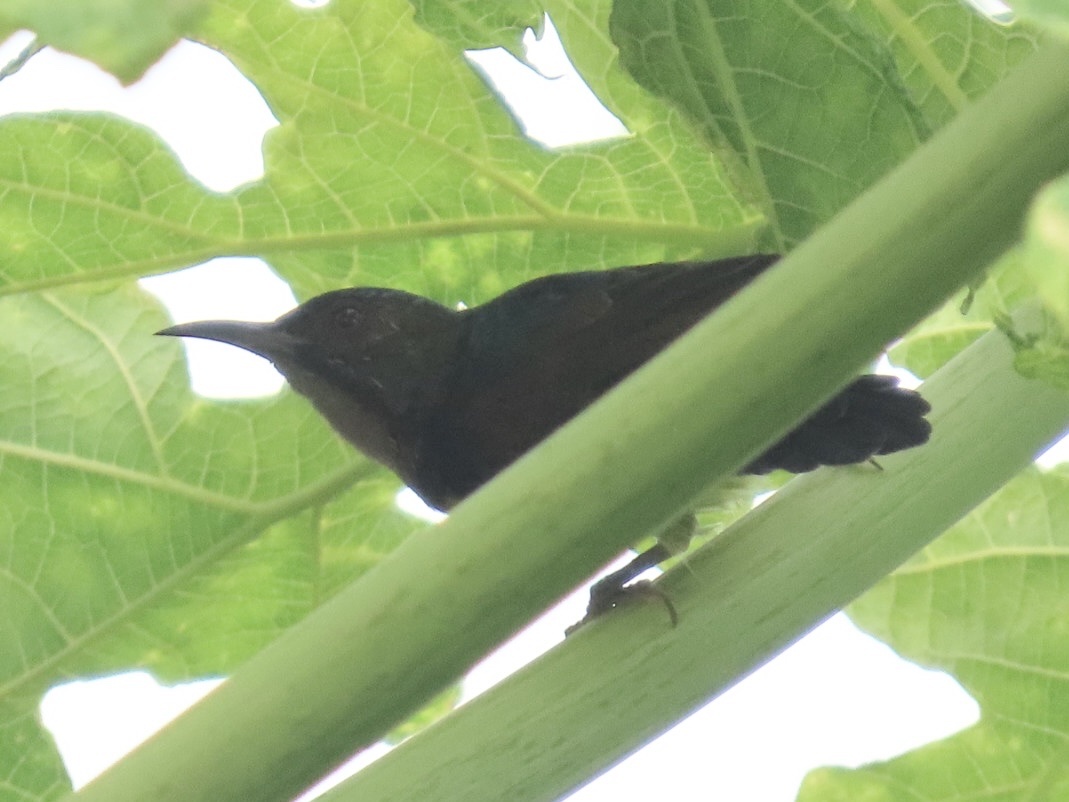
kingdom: Animalia
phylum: Chordata
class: Aves
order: Passeriformes
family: Nectariniidae
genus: Anthreptes
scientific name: Anthreptes malacensis
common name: Brown-throated sunbird
